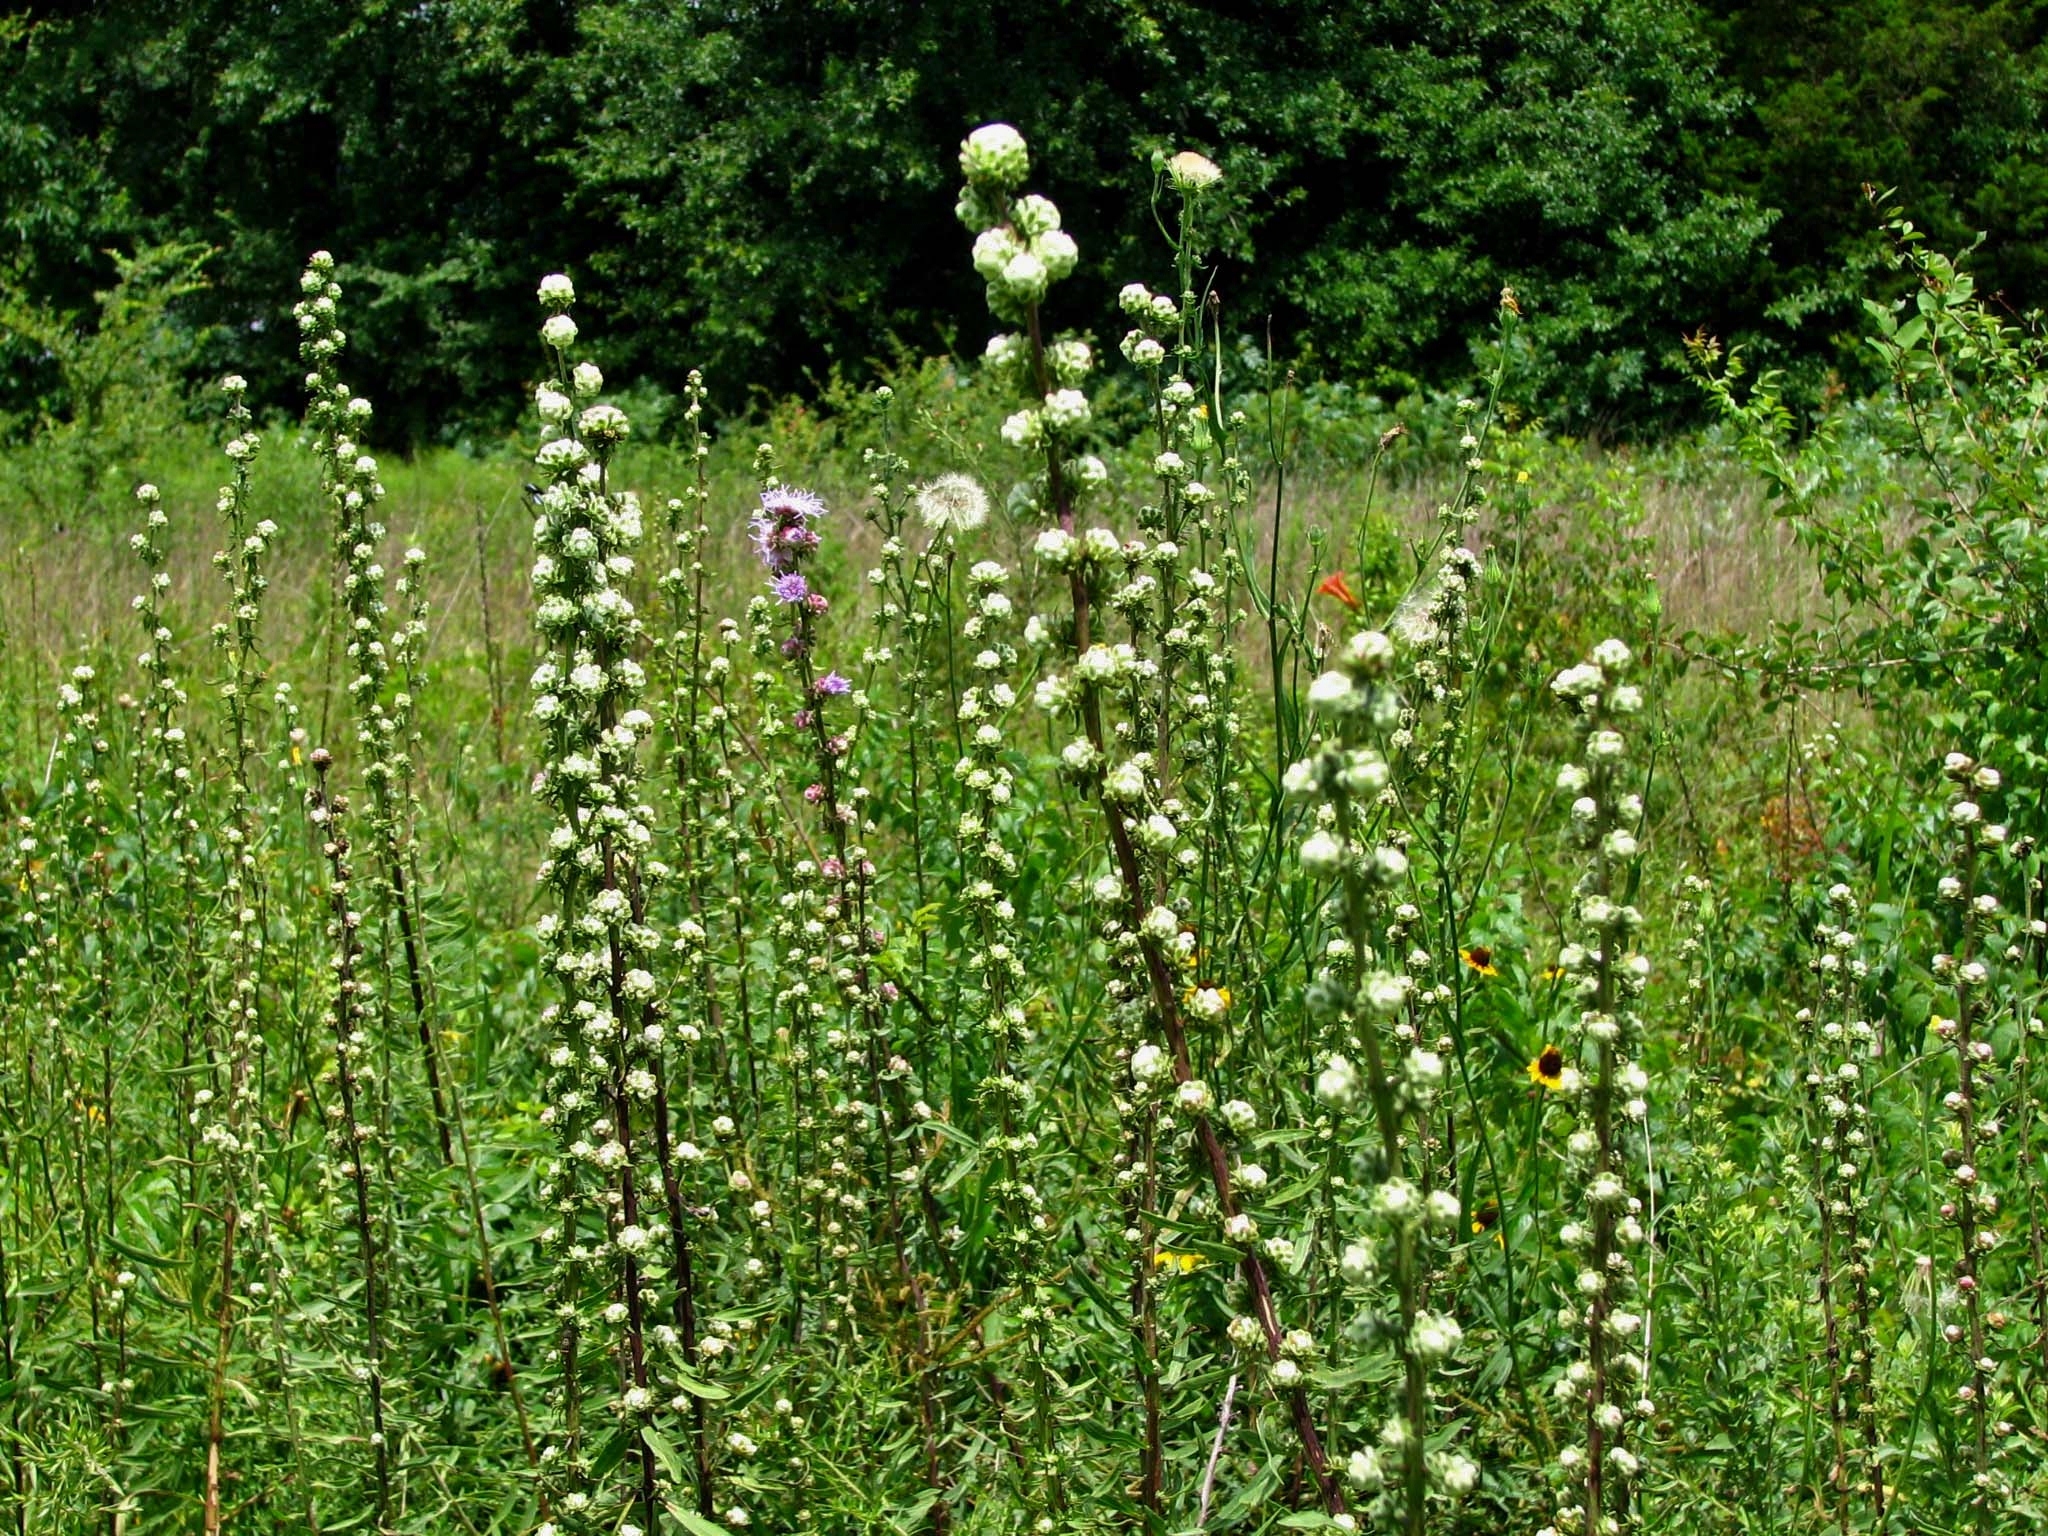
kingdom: Plantae
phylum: Tracheophyta
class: Magnoliopsida
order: Asterales
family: Asteraceae
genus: Liatris
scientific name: Liatris aspera
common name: Lacerate blazing-star
